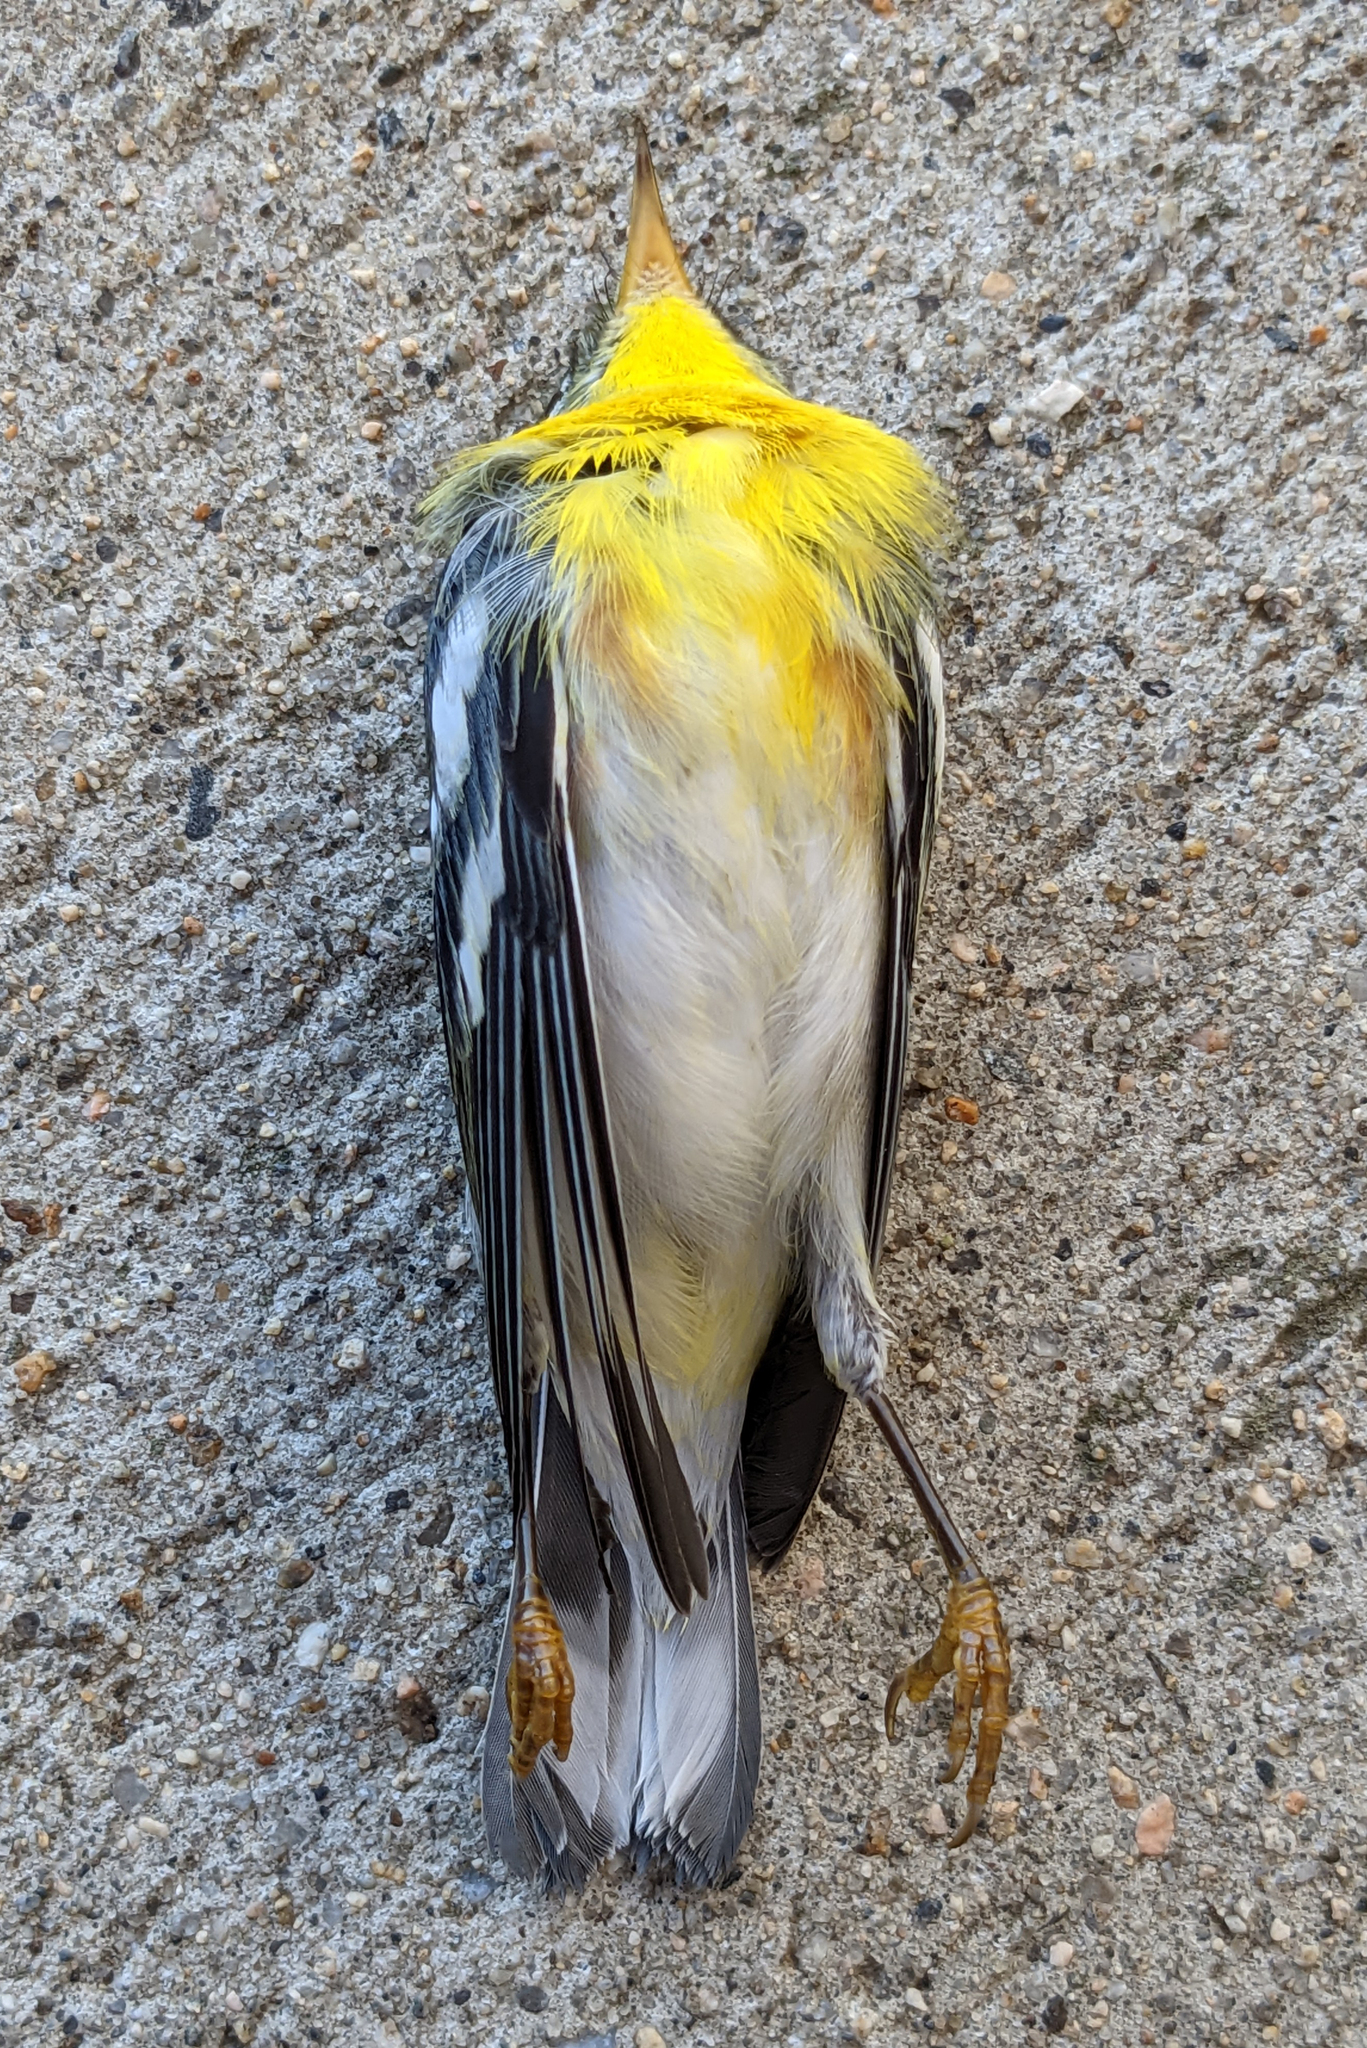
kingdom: Animalia
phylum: Chordata
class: Aves
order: Passeriformes
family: Parulidae
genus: Setophaga
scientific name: Setophaga americana
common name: Northern parula
